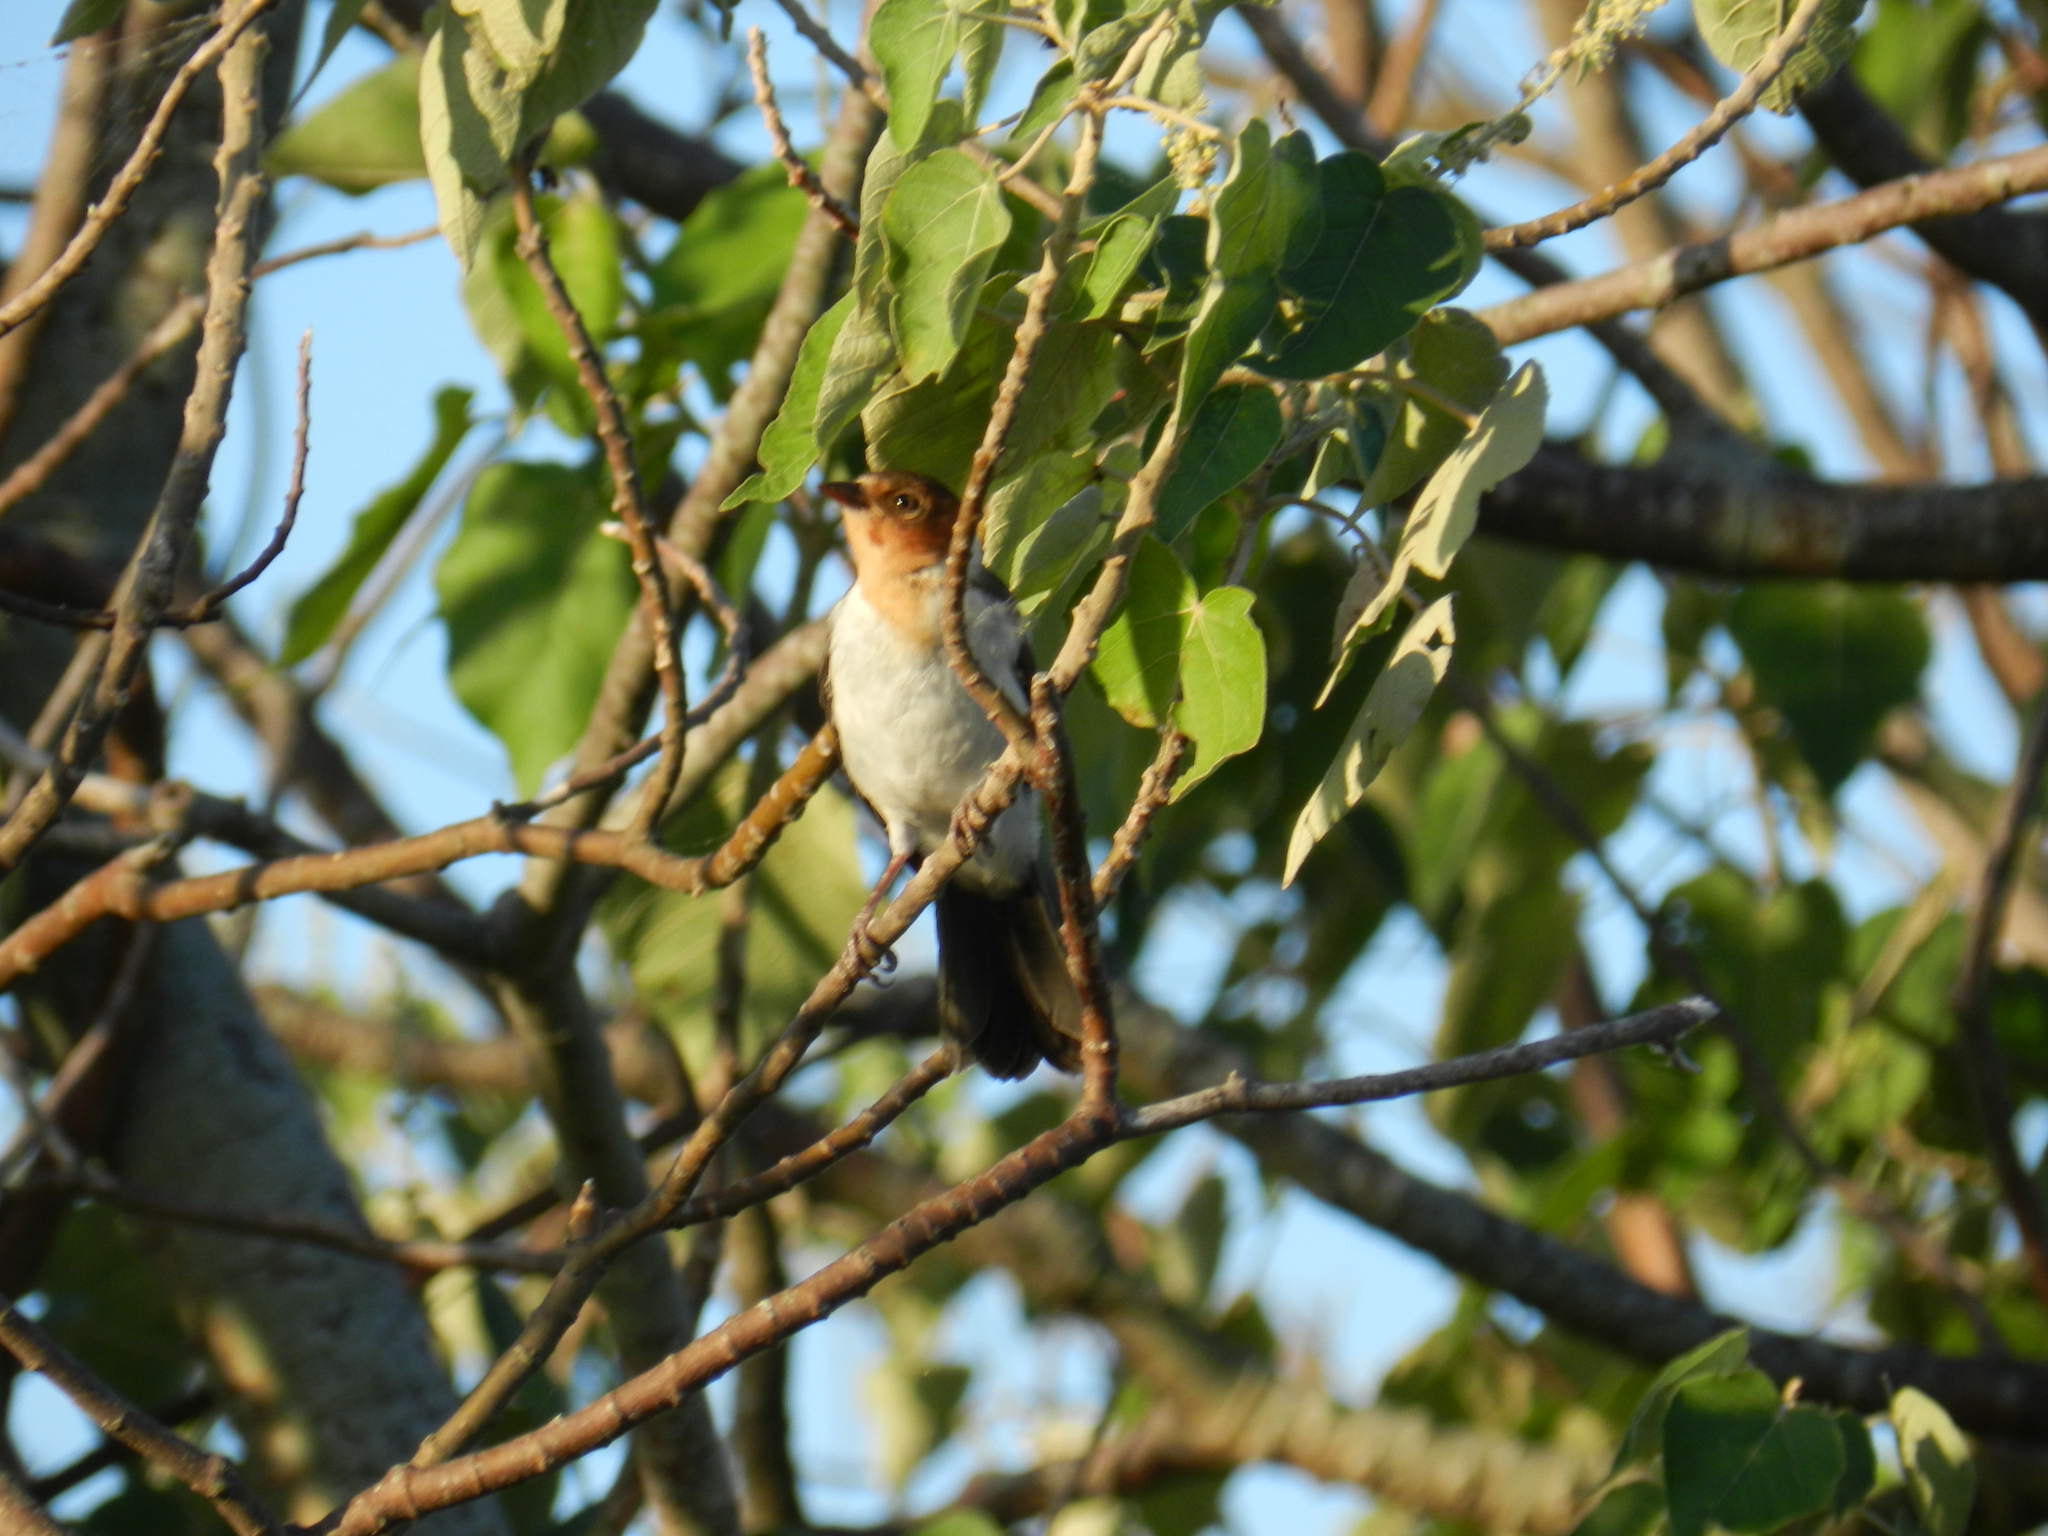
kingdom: Animalia
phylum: Chordata
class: Aves
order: Passeriformes
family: Thraupidae
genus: Paroaria
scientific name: Paroaria capitata
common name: Yellow-billed cardinal
